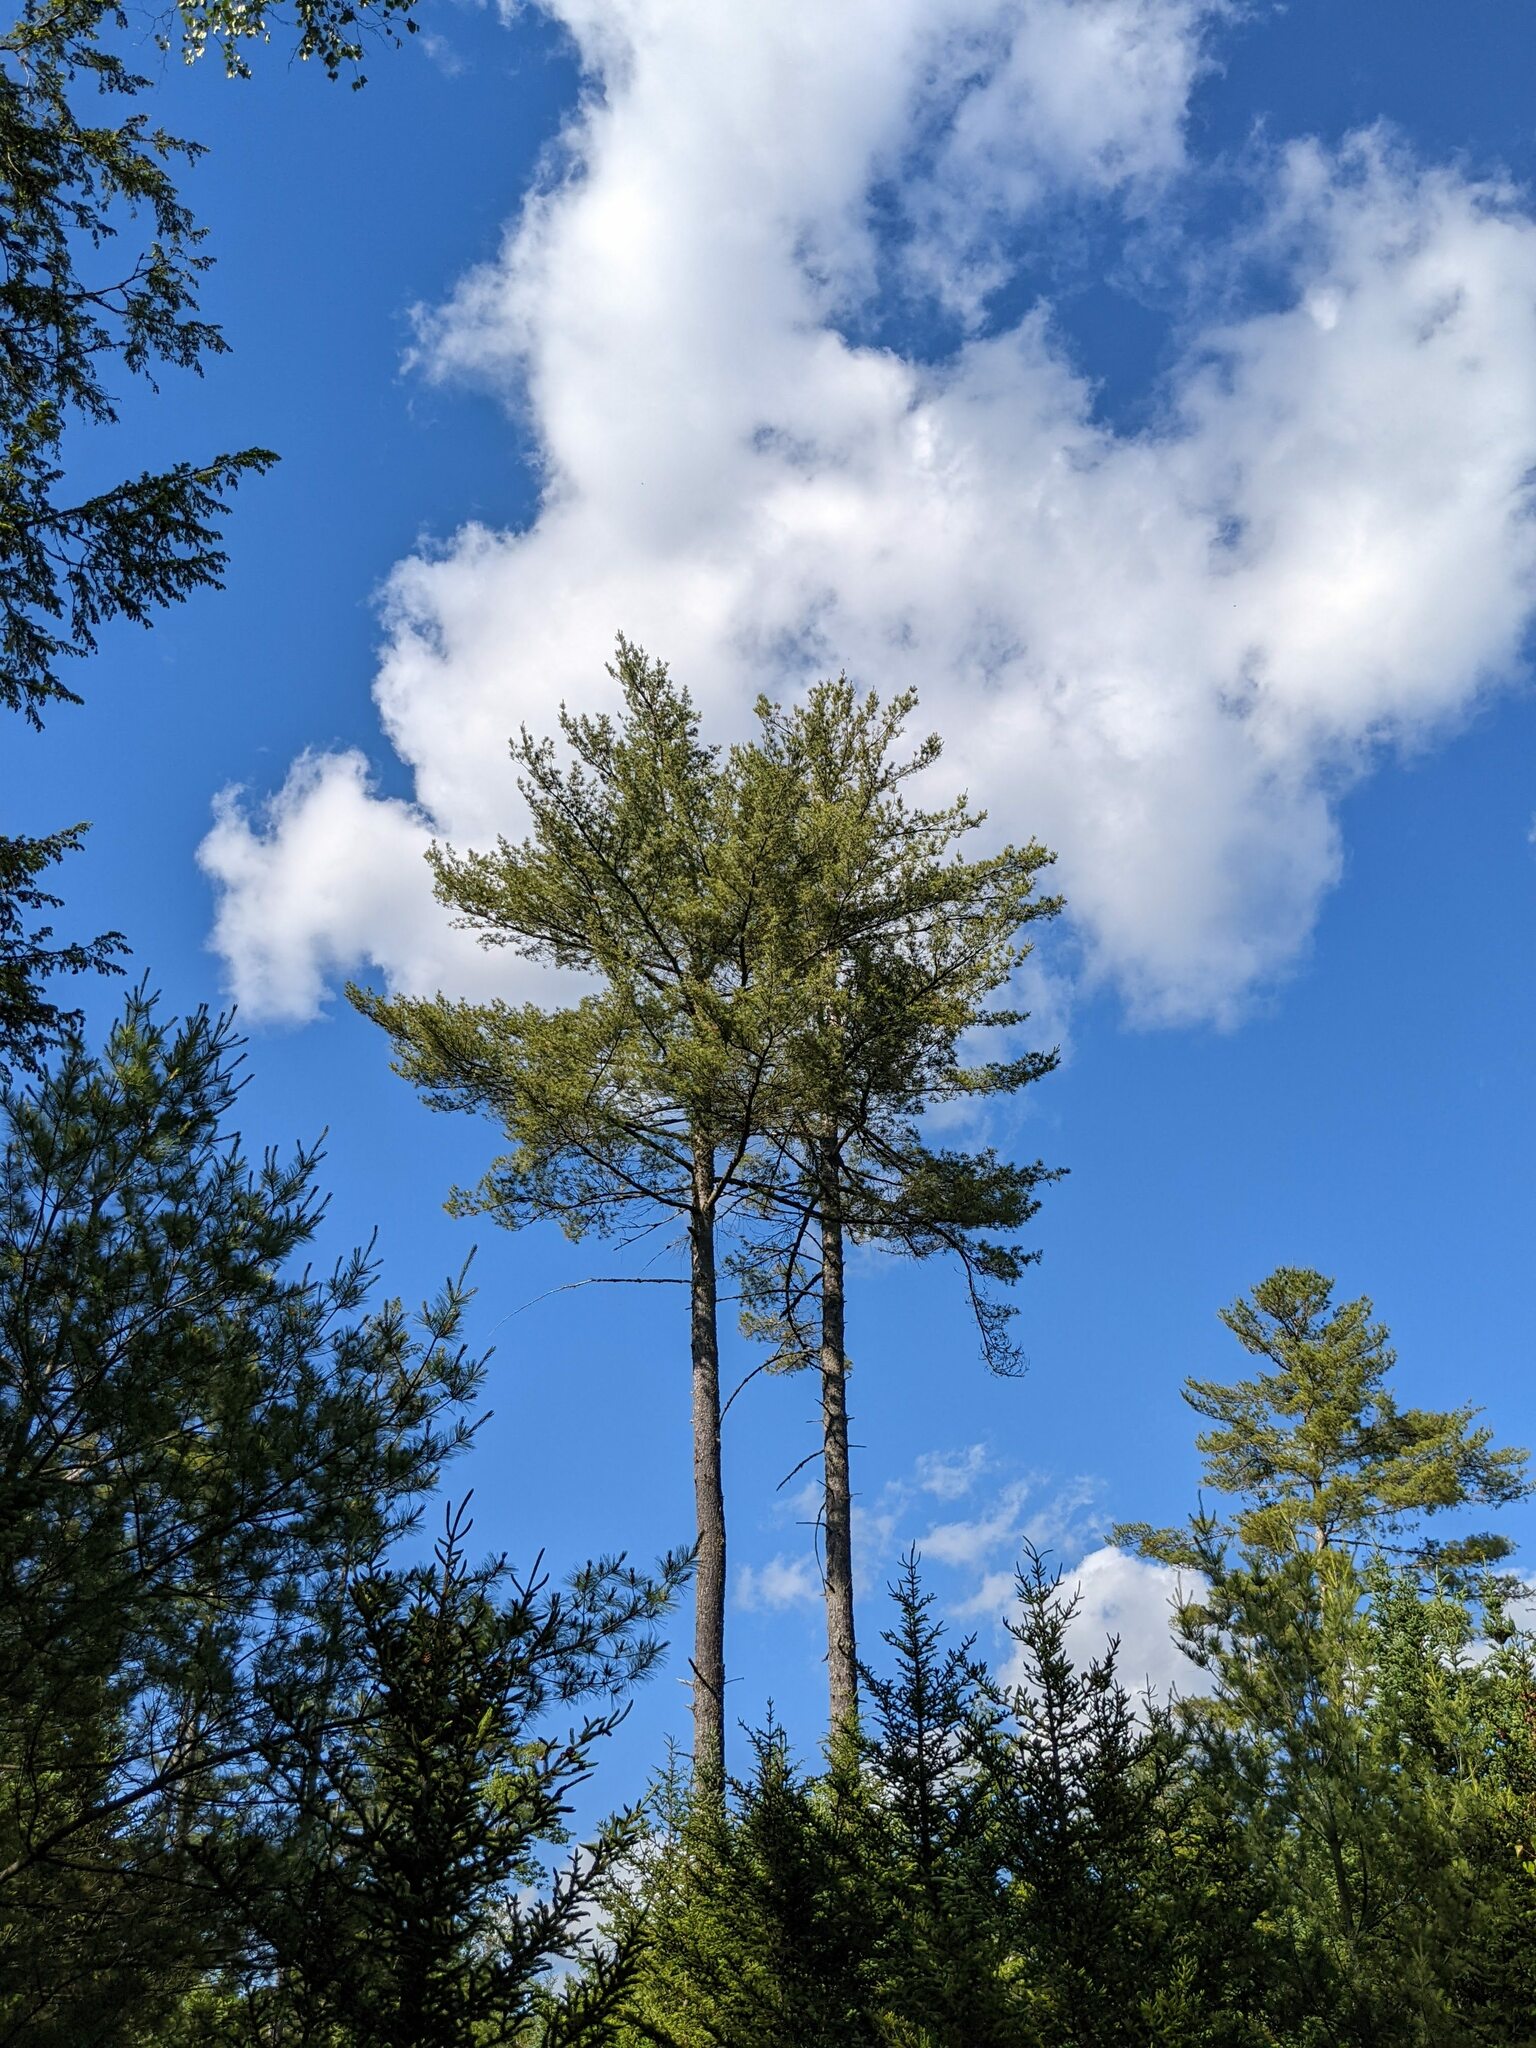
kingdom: Plantae
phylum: Tracheophyta
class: Pinopsida
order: Pinales
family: Pinaceae
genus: Pinus
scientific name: Pinus strobus
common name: Weymouth pine
